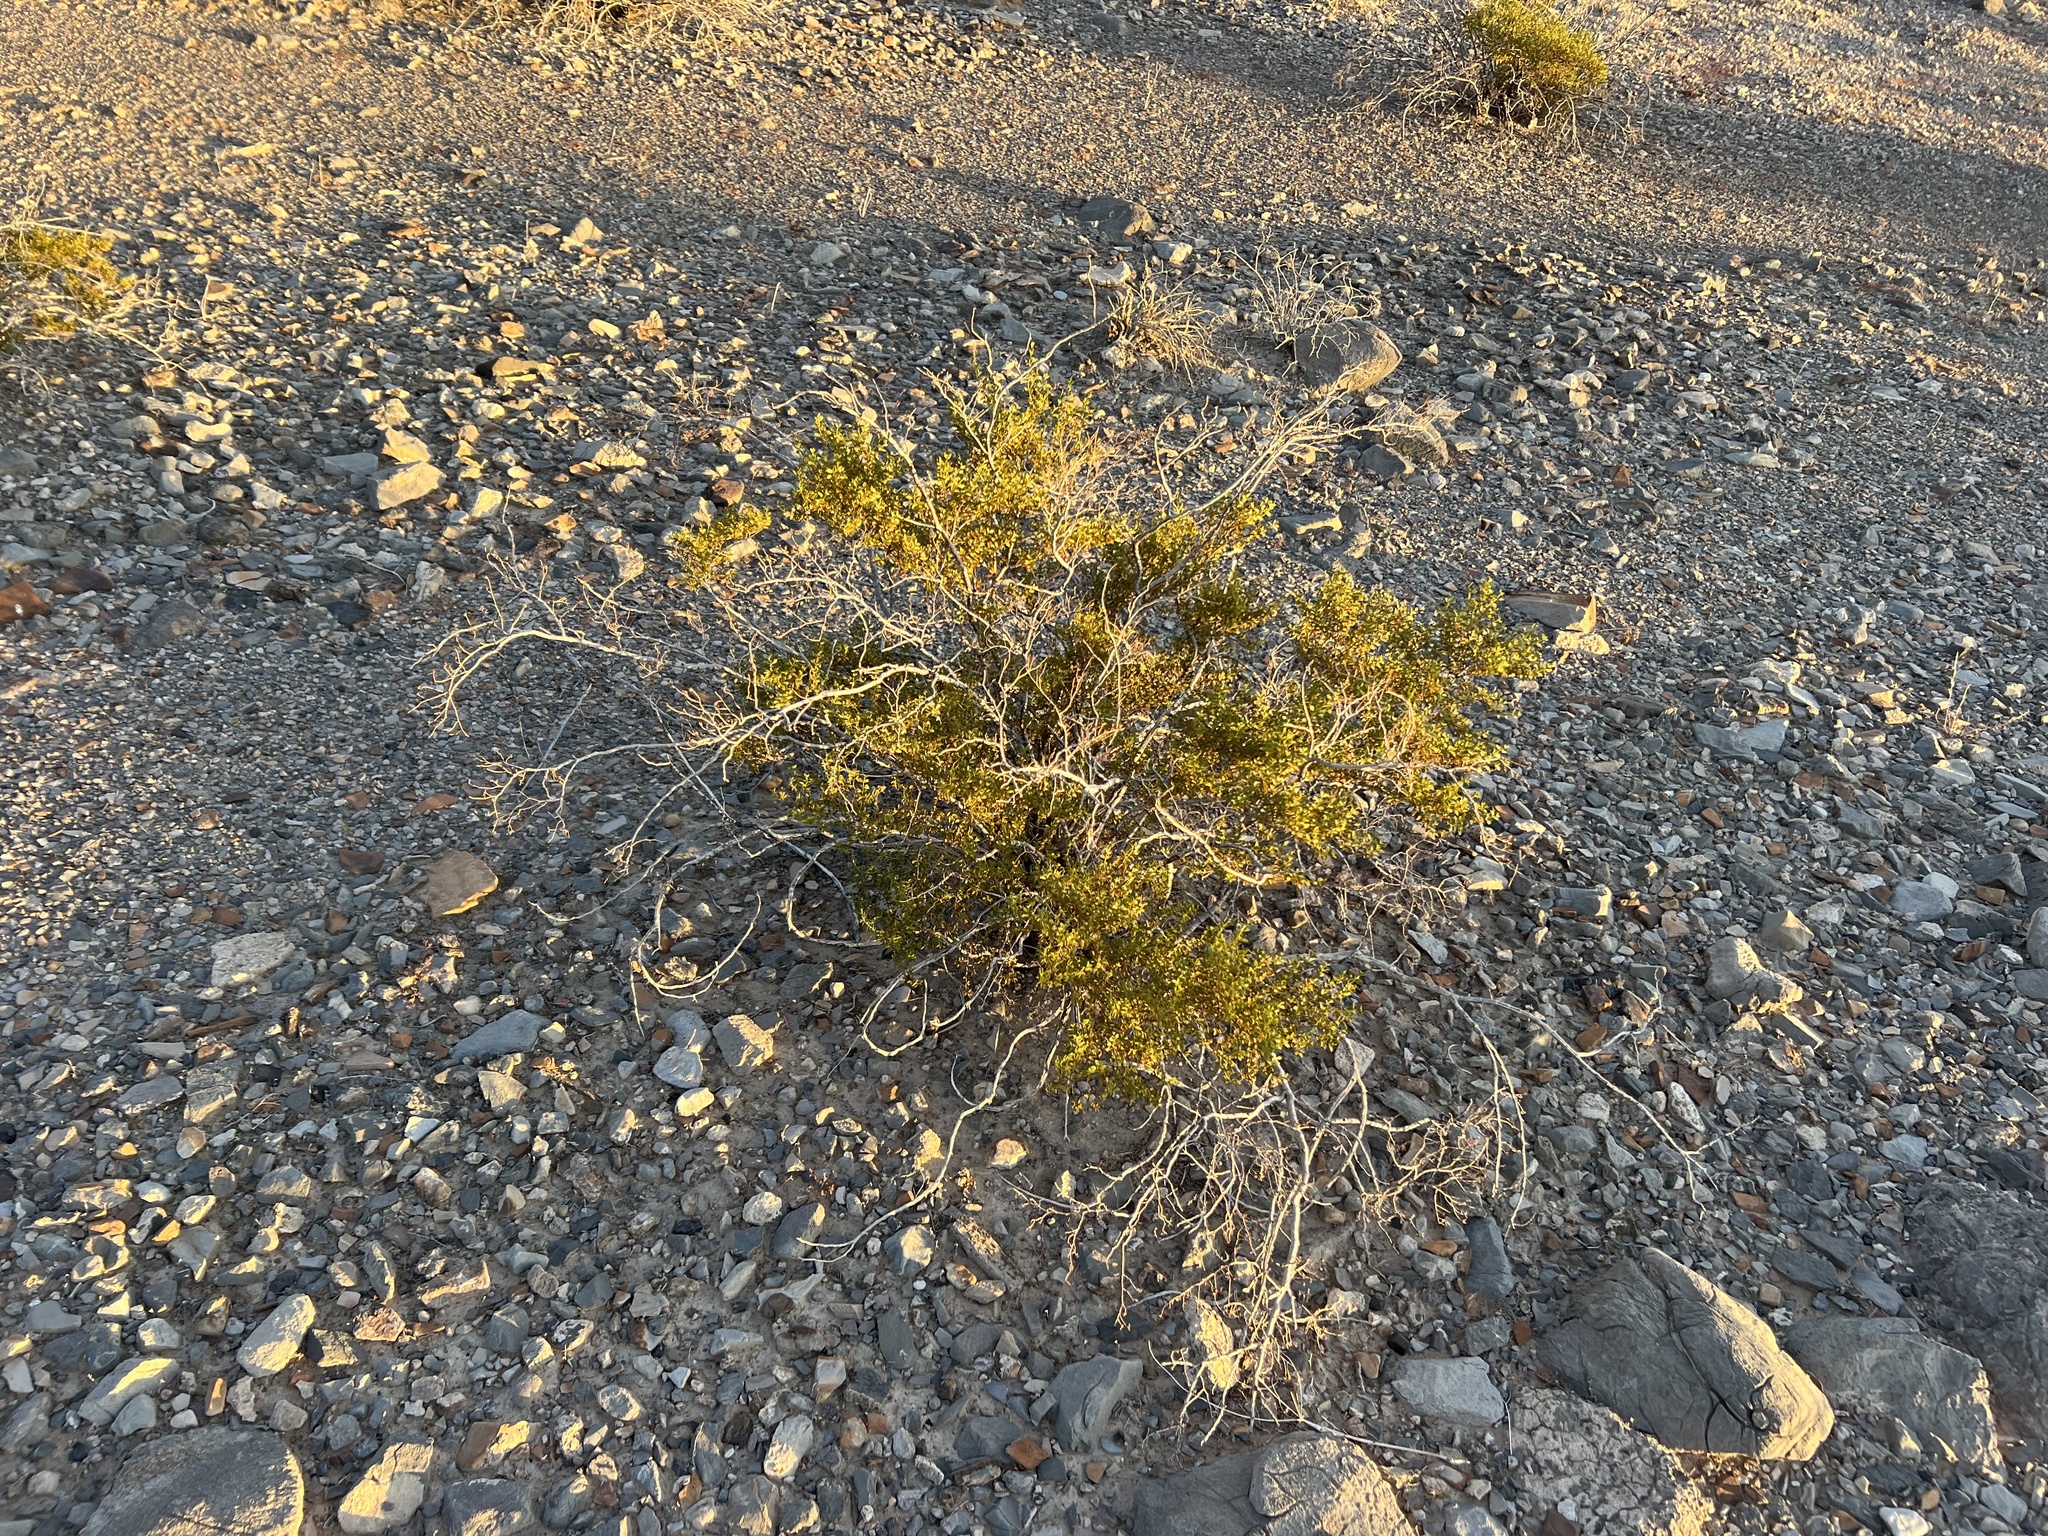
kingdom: Plantae
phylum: Tracheophyta
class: Magnoliopsida
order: Zygophyllales
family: Zygophyllaceae
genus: Larrea
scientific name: Larrea tridentata
